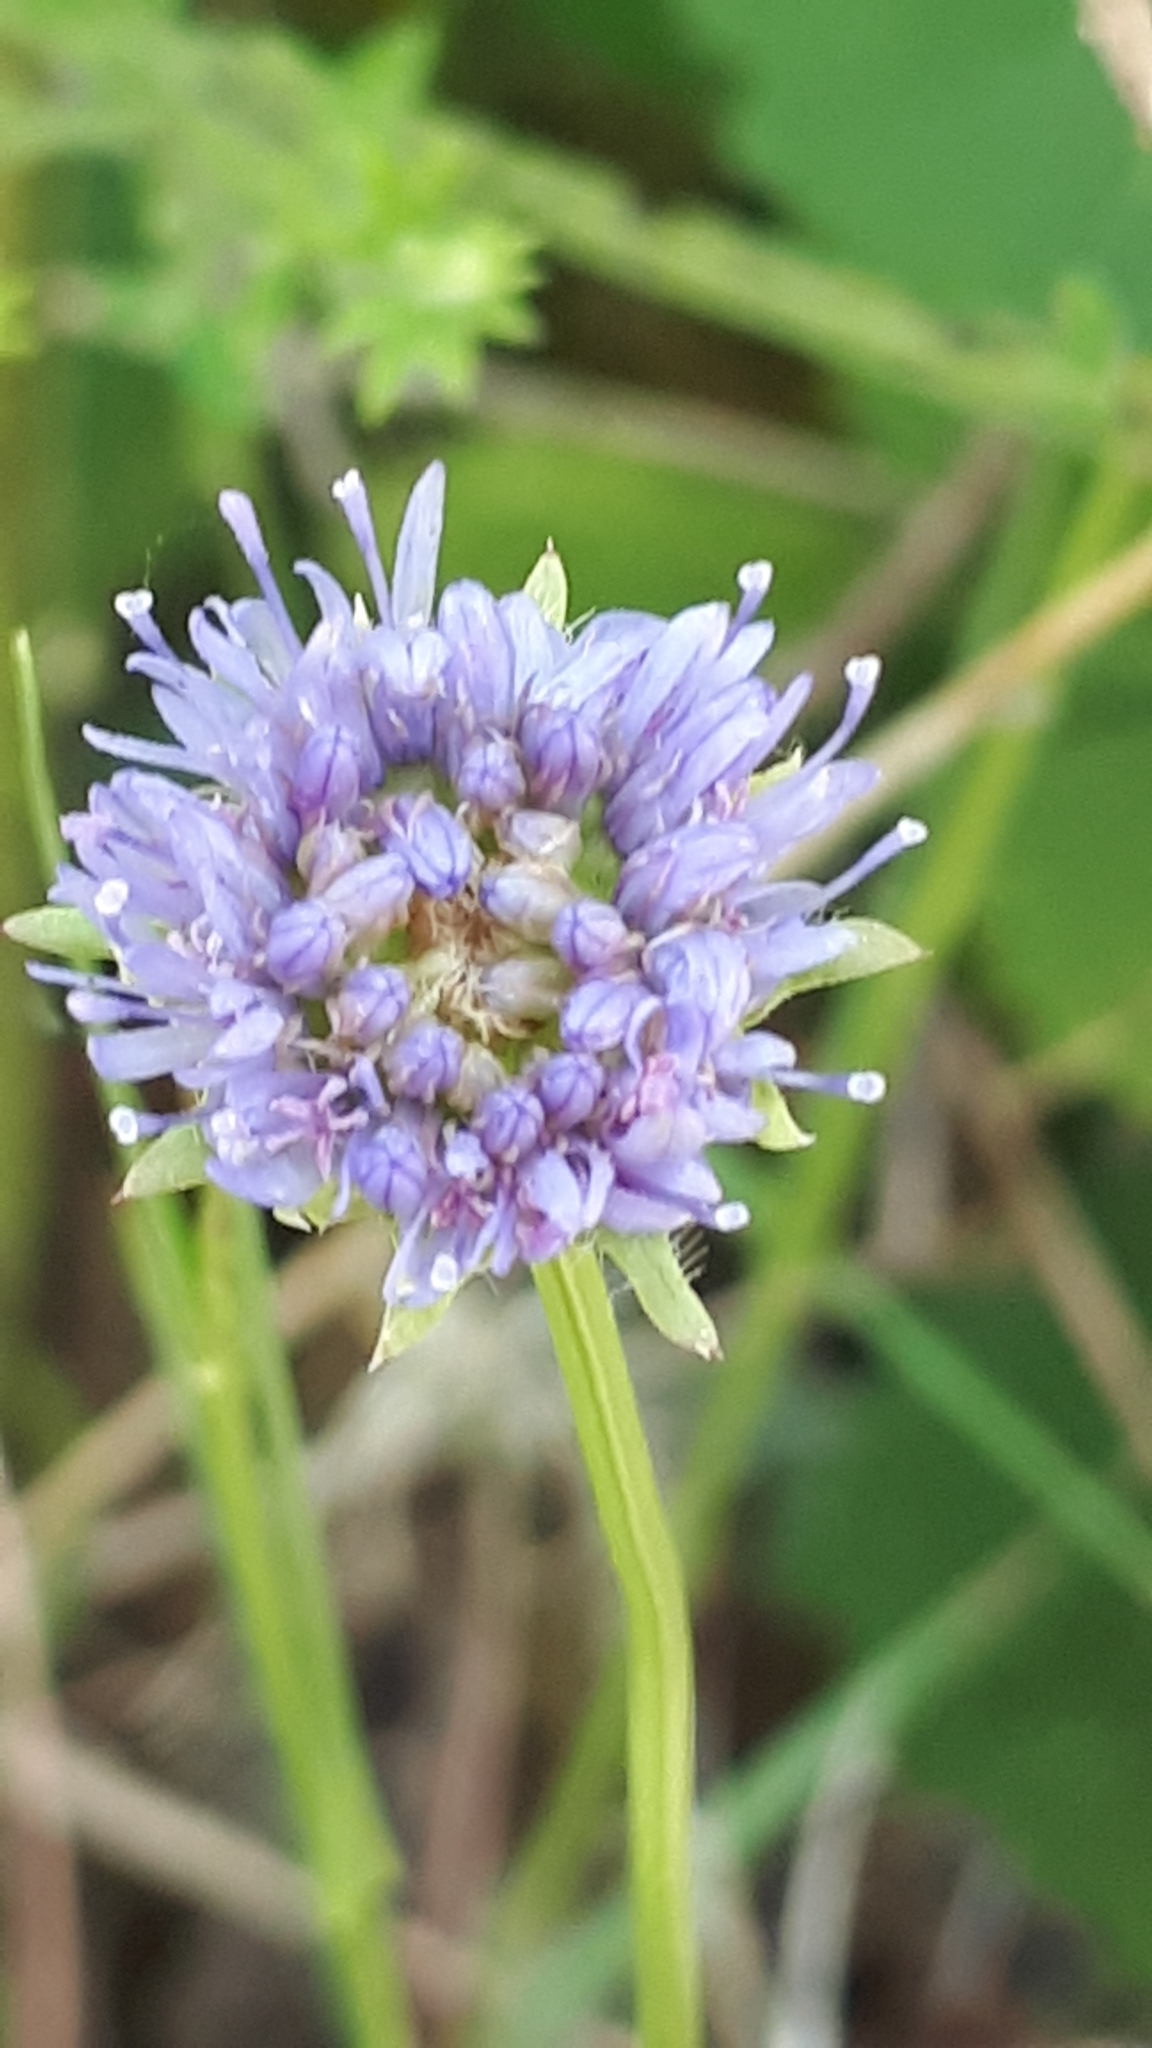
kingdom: Plantae
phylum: Tracheophyta
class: Magnoliopsida
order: Asterales
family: Campanulaceae
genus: Jasione
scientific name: Jasione montana
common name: Sheep's-bit
